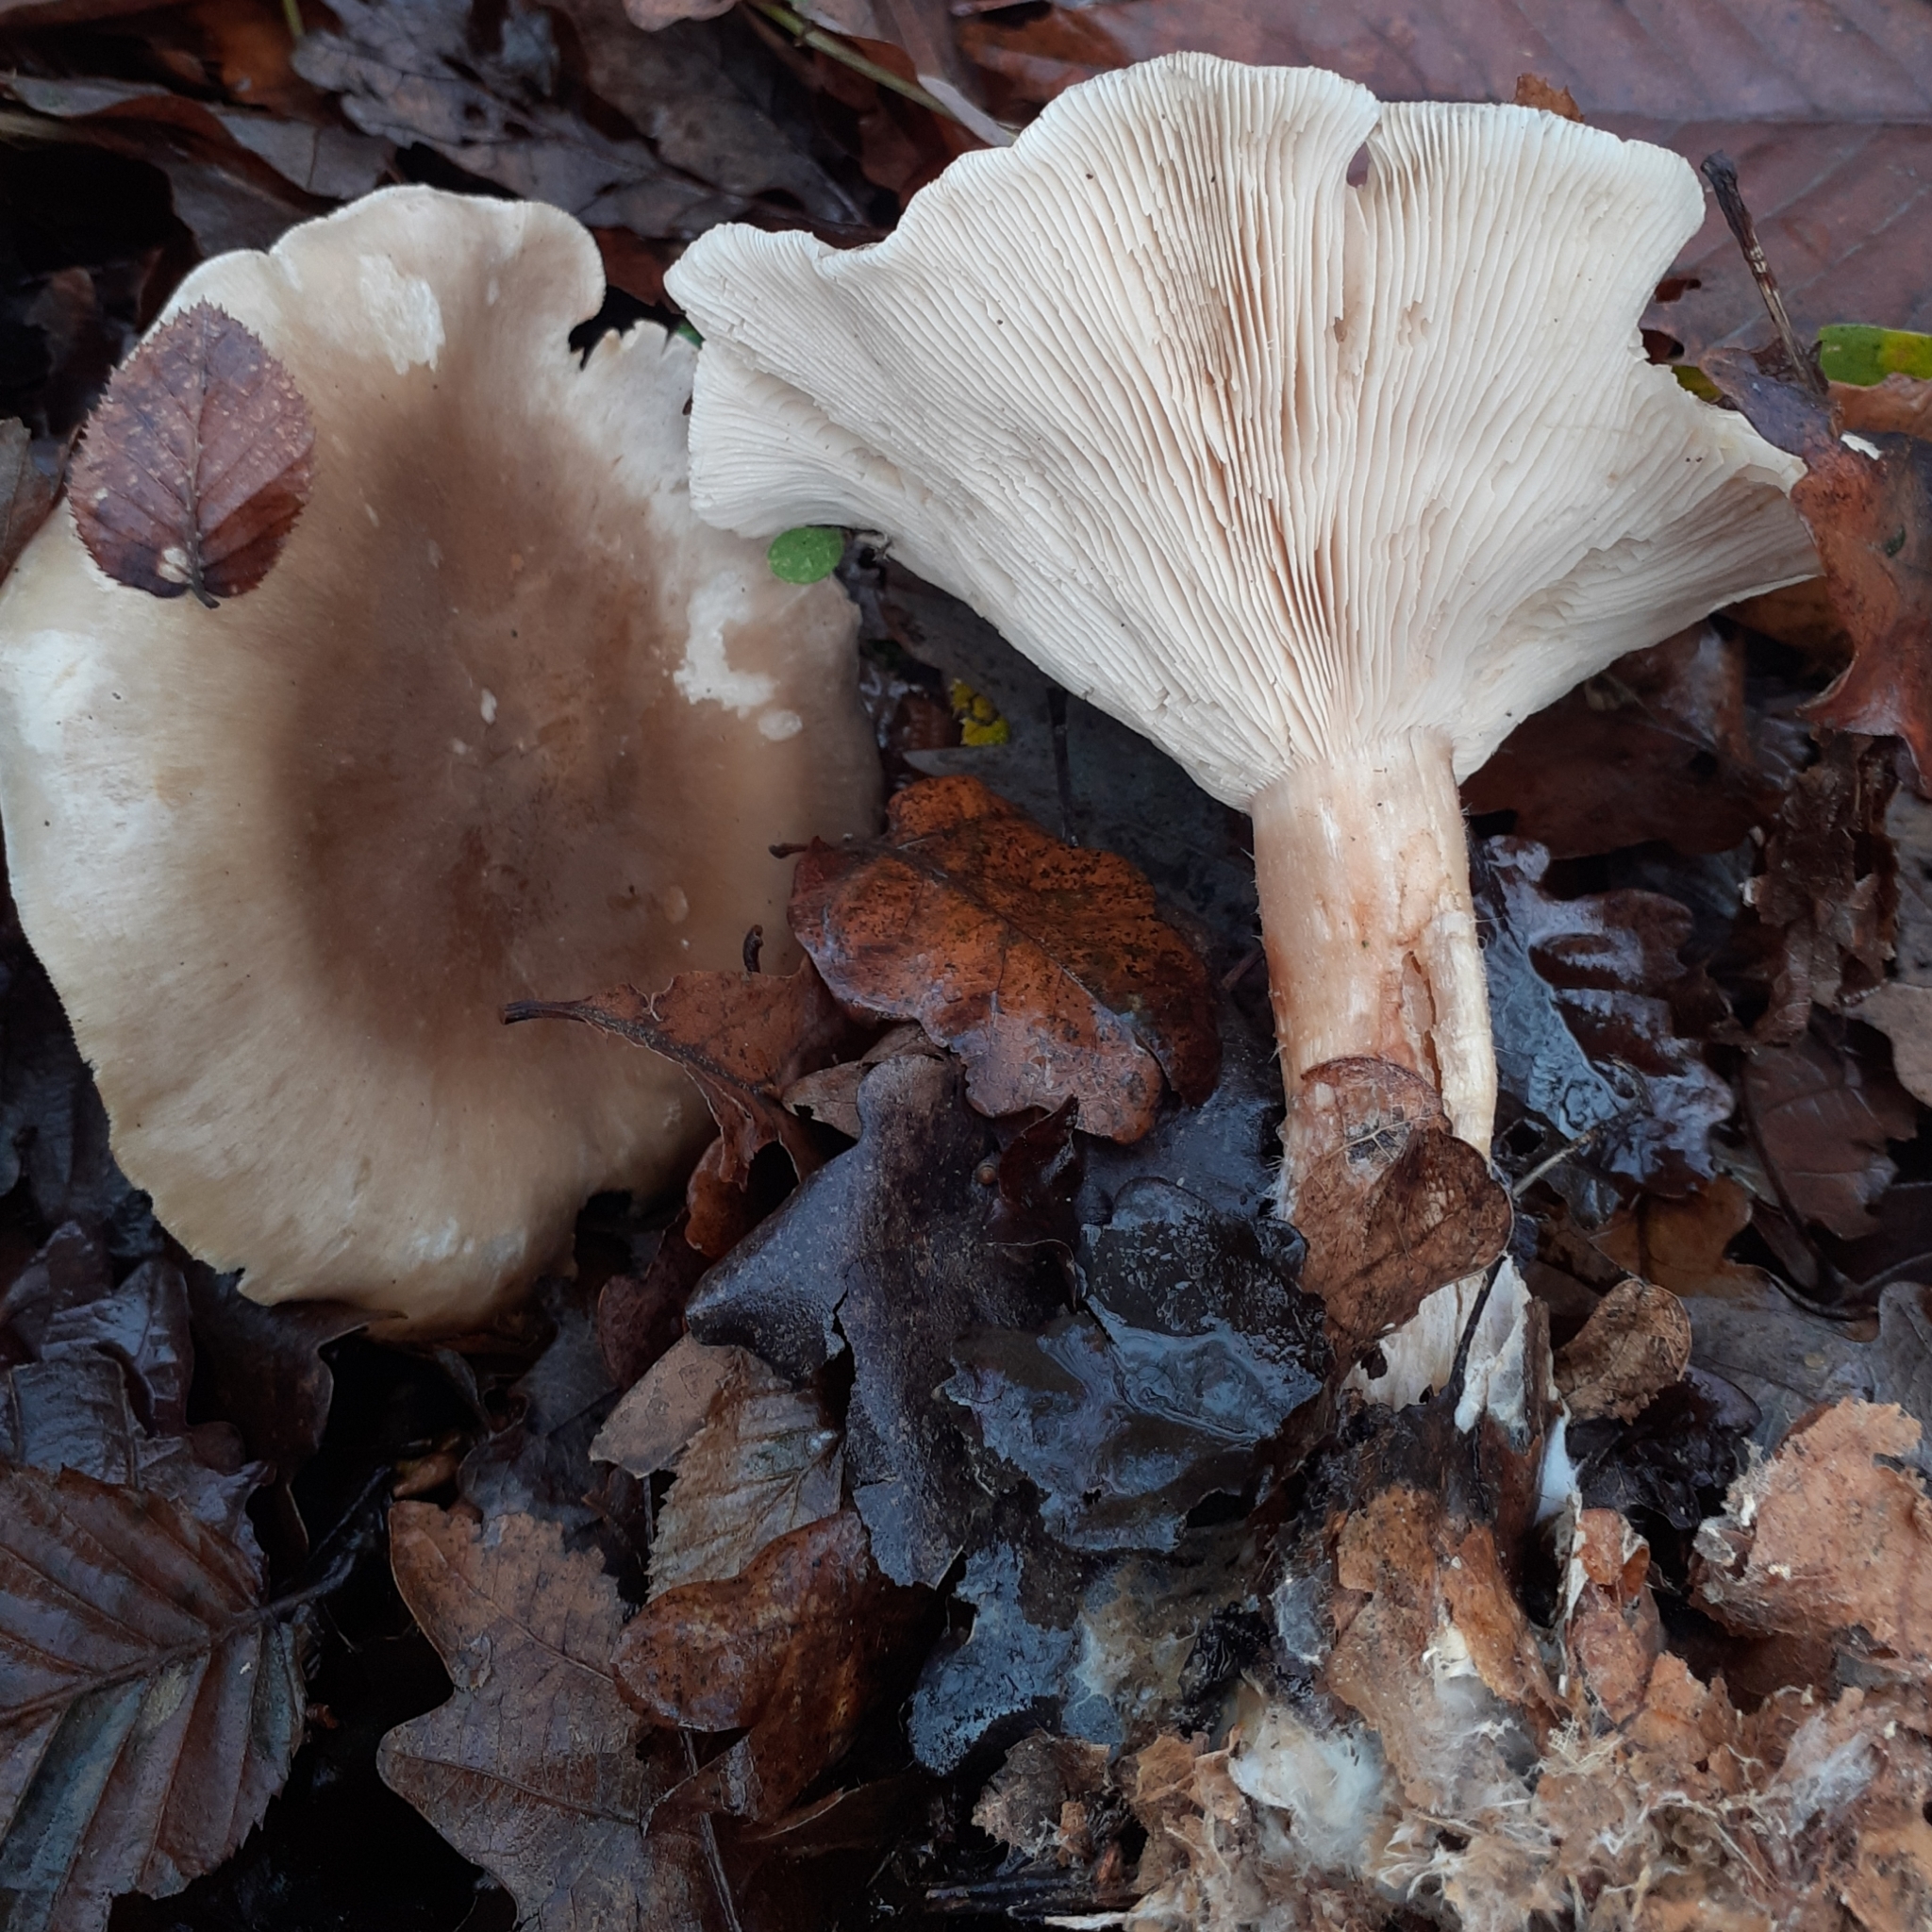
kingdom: Fungi
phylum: Basidiomycota
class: Agaricomycetes
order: Agaricales
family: Tricholomataceae
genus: Clitocybe
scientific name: Clitocybe nebularis
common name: Clouded agaric
